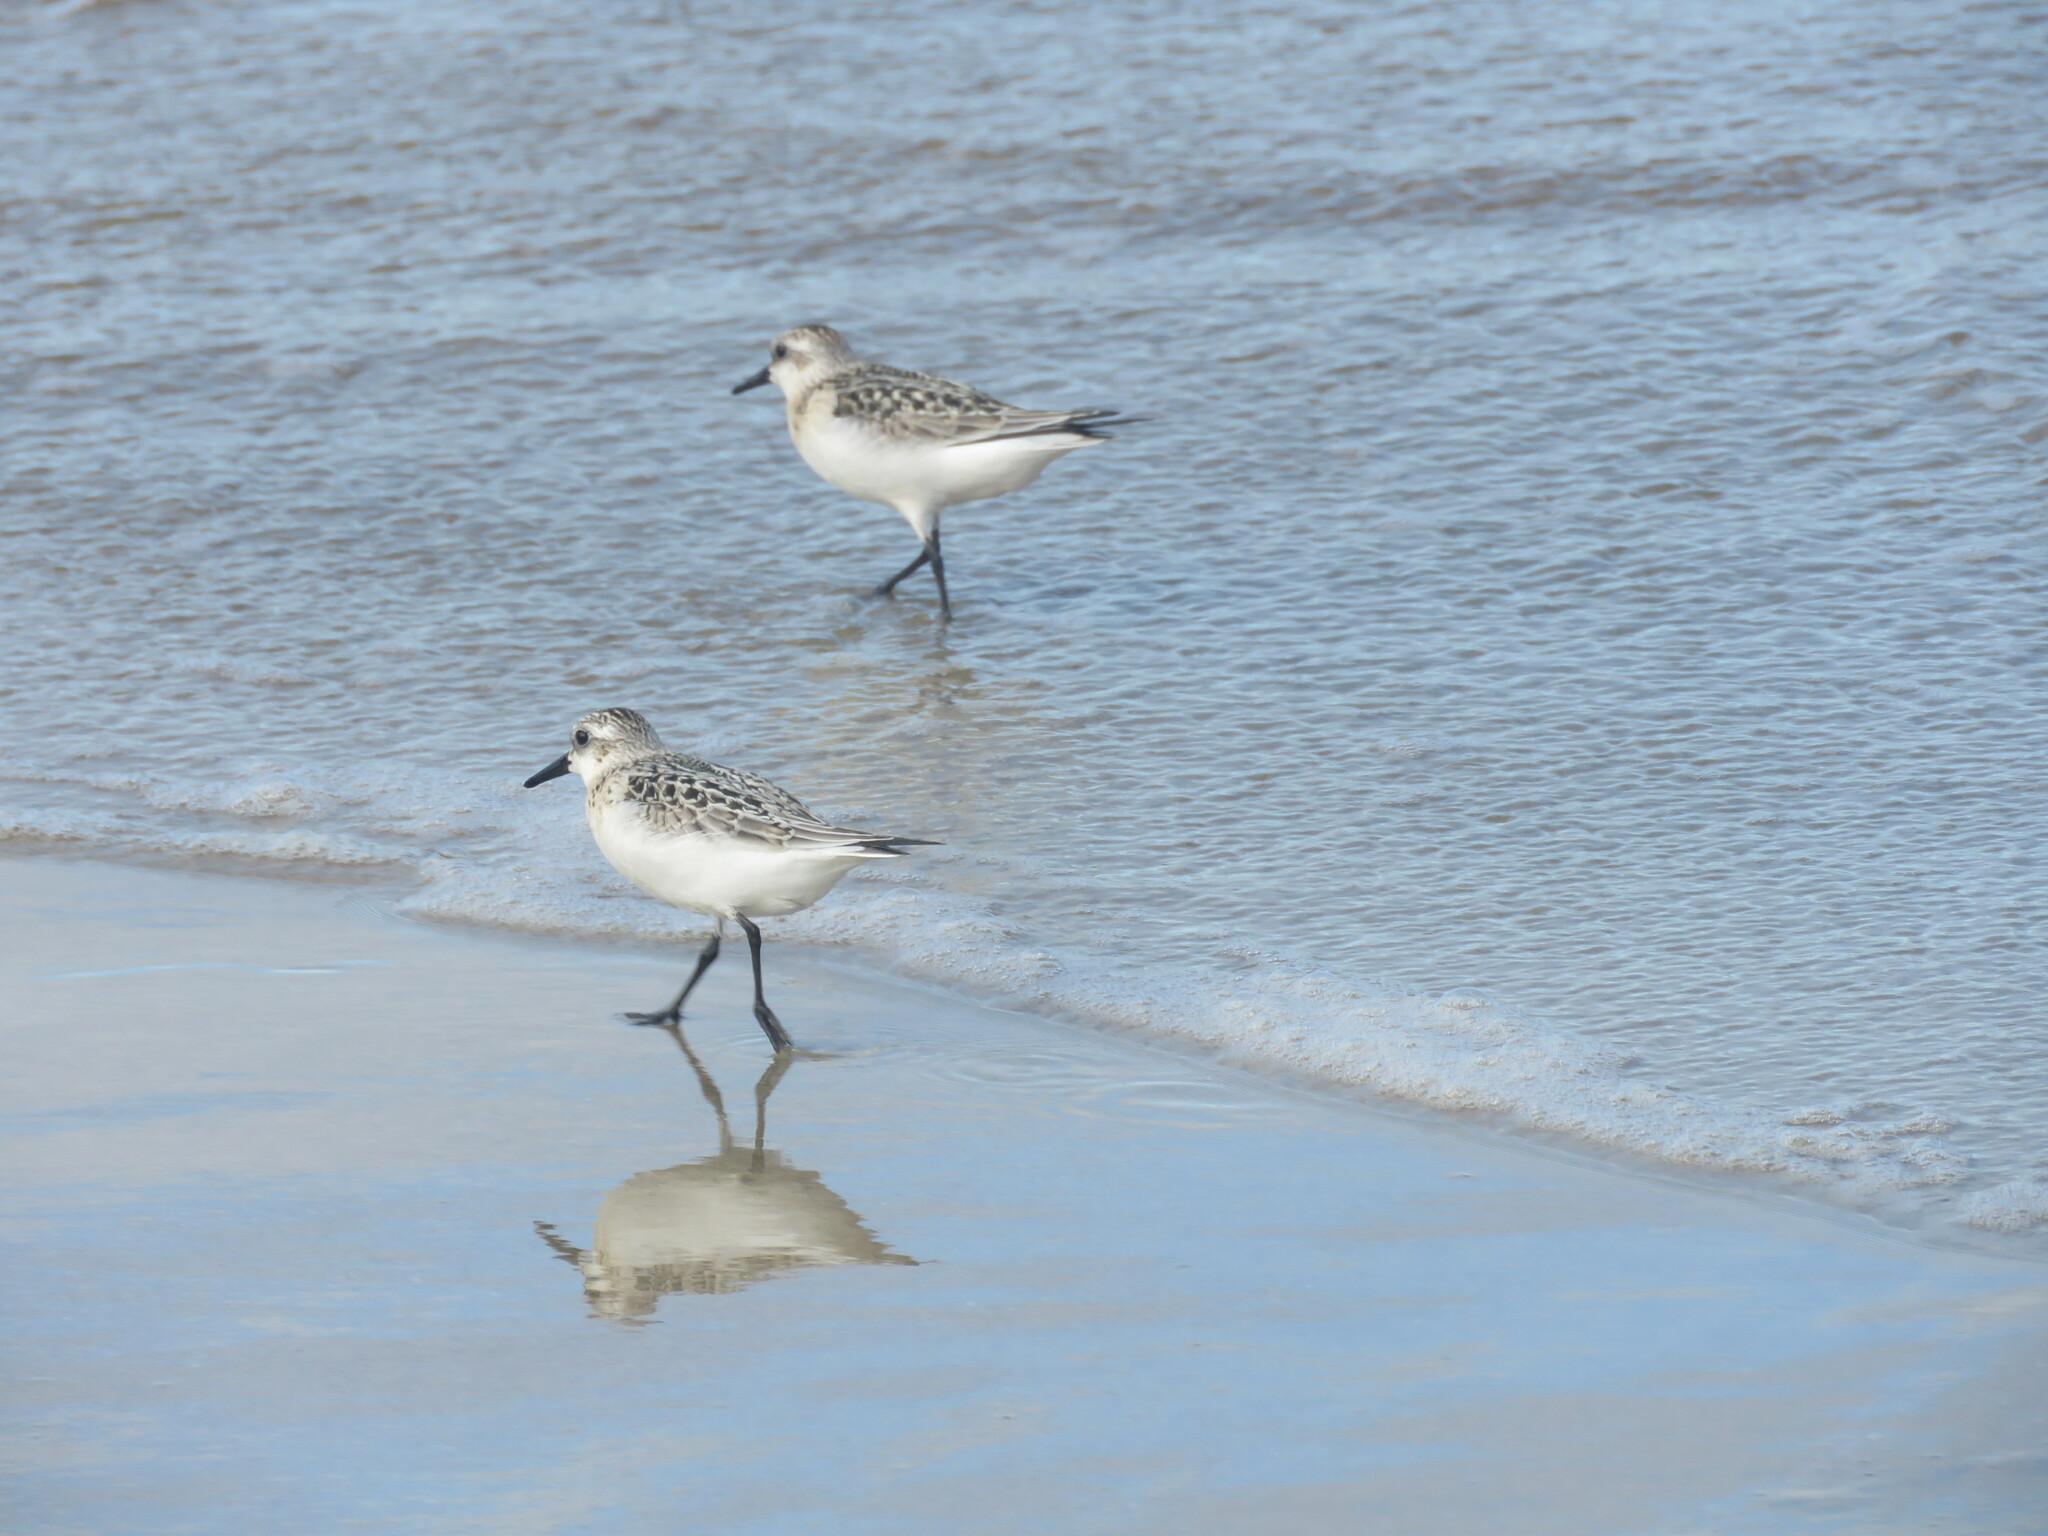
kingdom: Animalia
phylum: Chordata
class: Aves
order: Charadriiformes
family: Scolopacidae
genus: Calidris
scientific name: Calidris alba
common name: Sanderling
